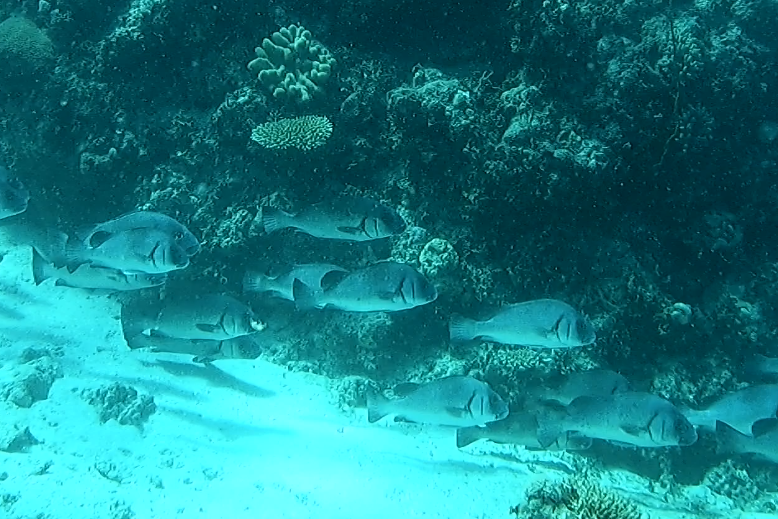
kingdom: Animalia
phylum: Chordata
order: Perciformes
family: Haemulidae
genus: Plectorhinchus
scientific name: Plectorhinchus gibbosus
